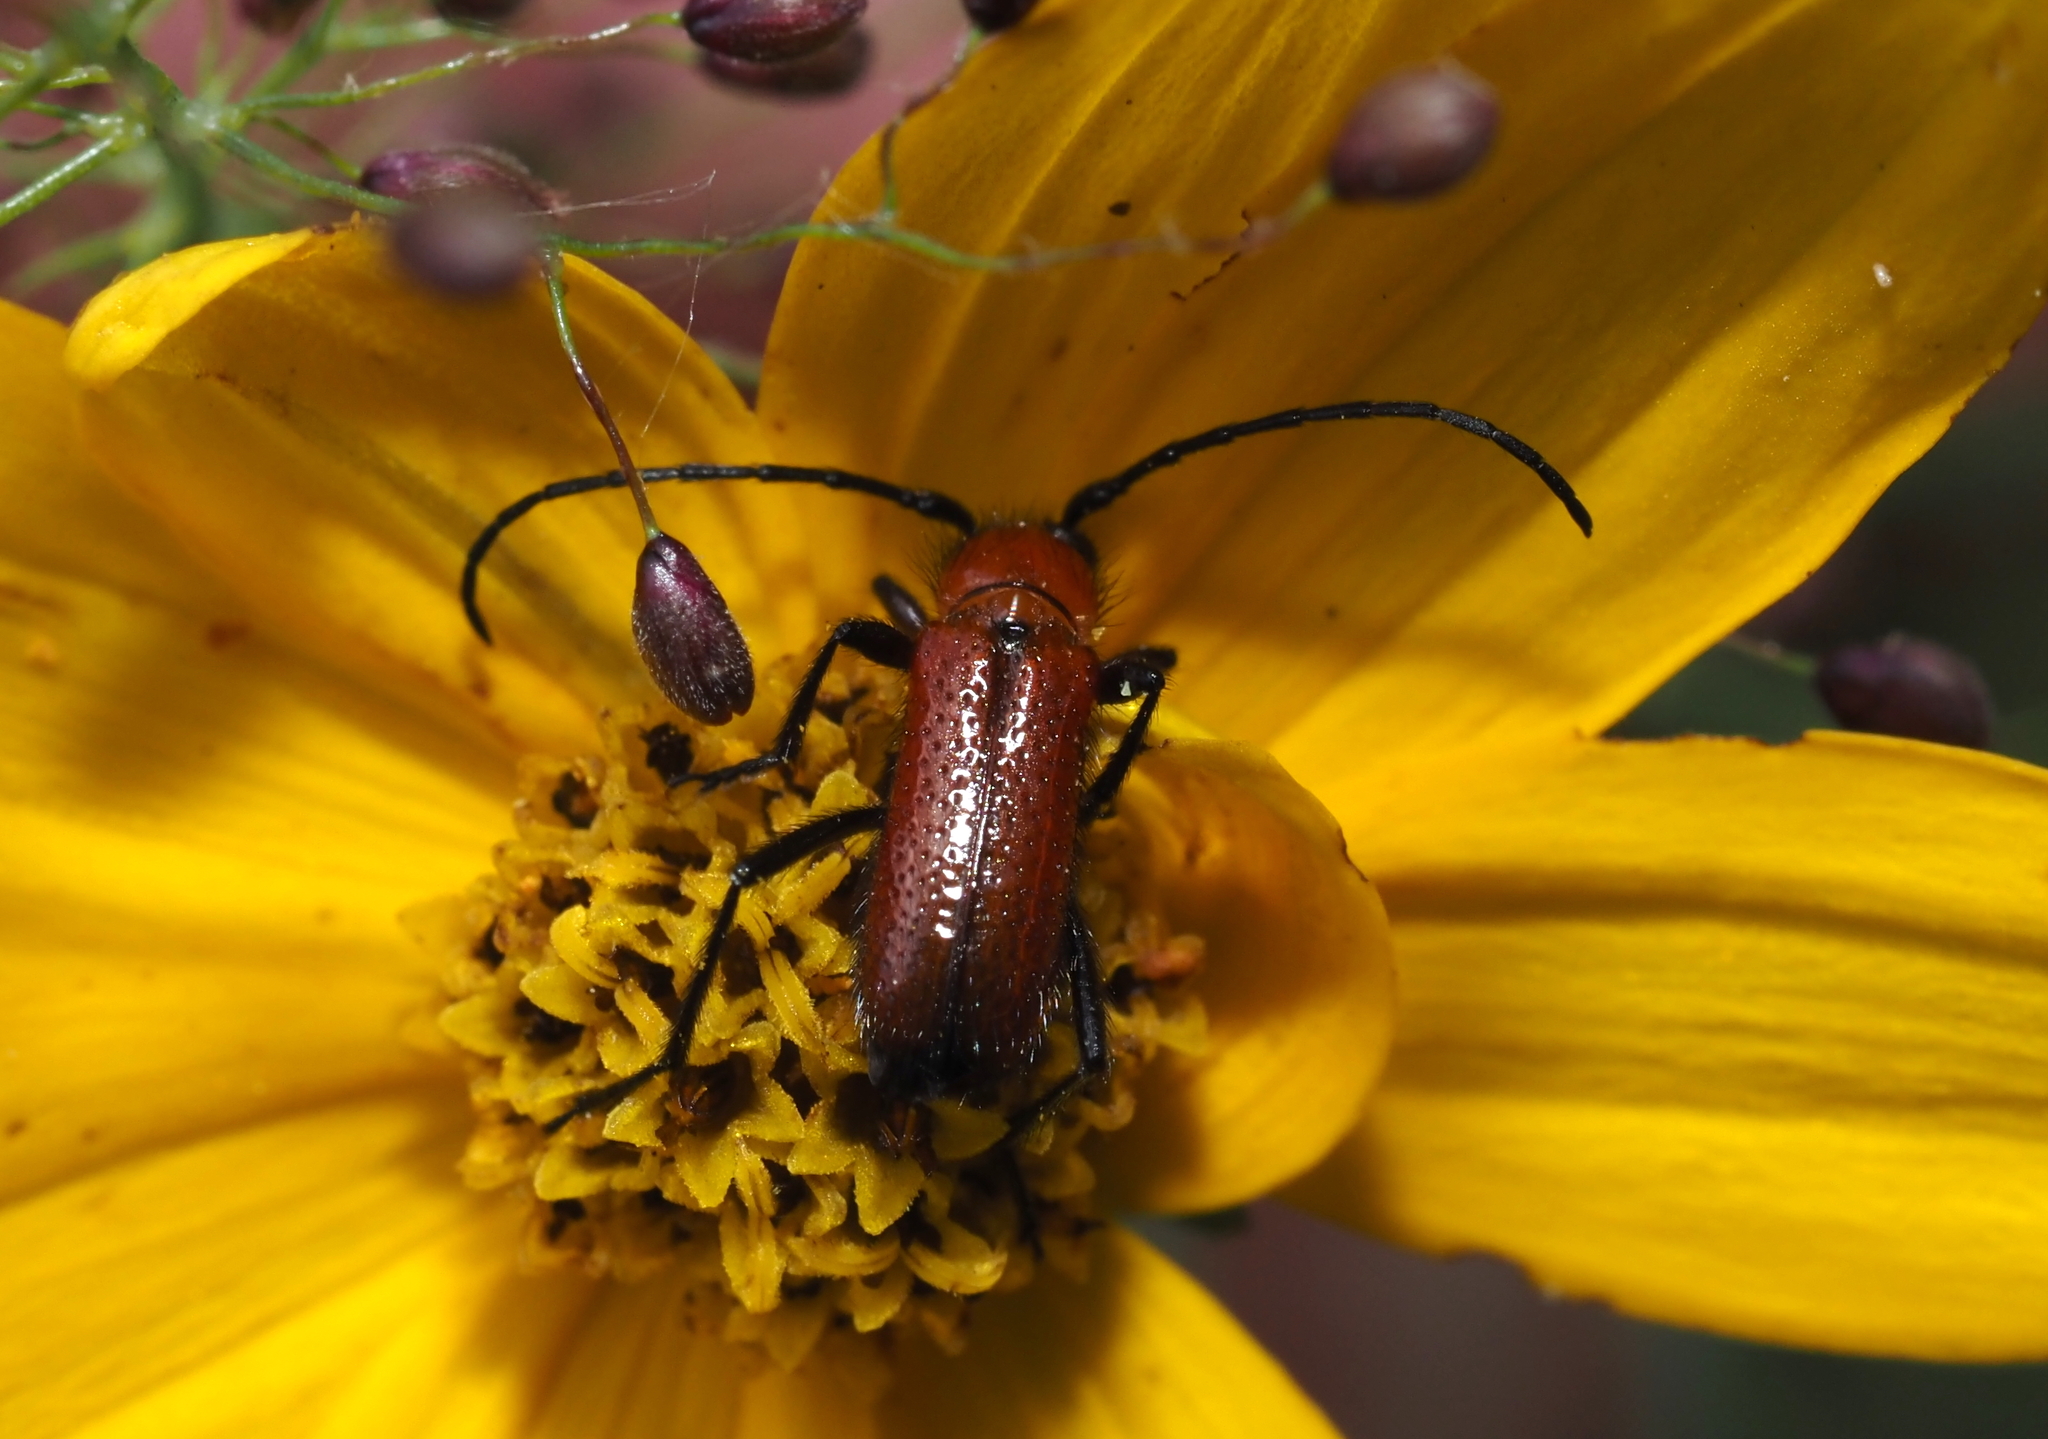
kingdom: Animalia
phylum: Arthropoda
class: Insecta
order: Coleoptera
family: Cerambycidae
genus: Batyle
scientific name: Batyle suturalis
